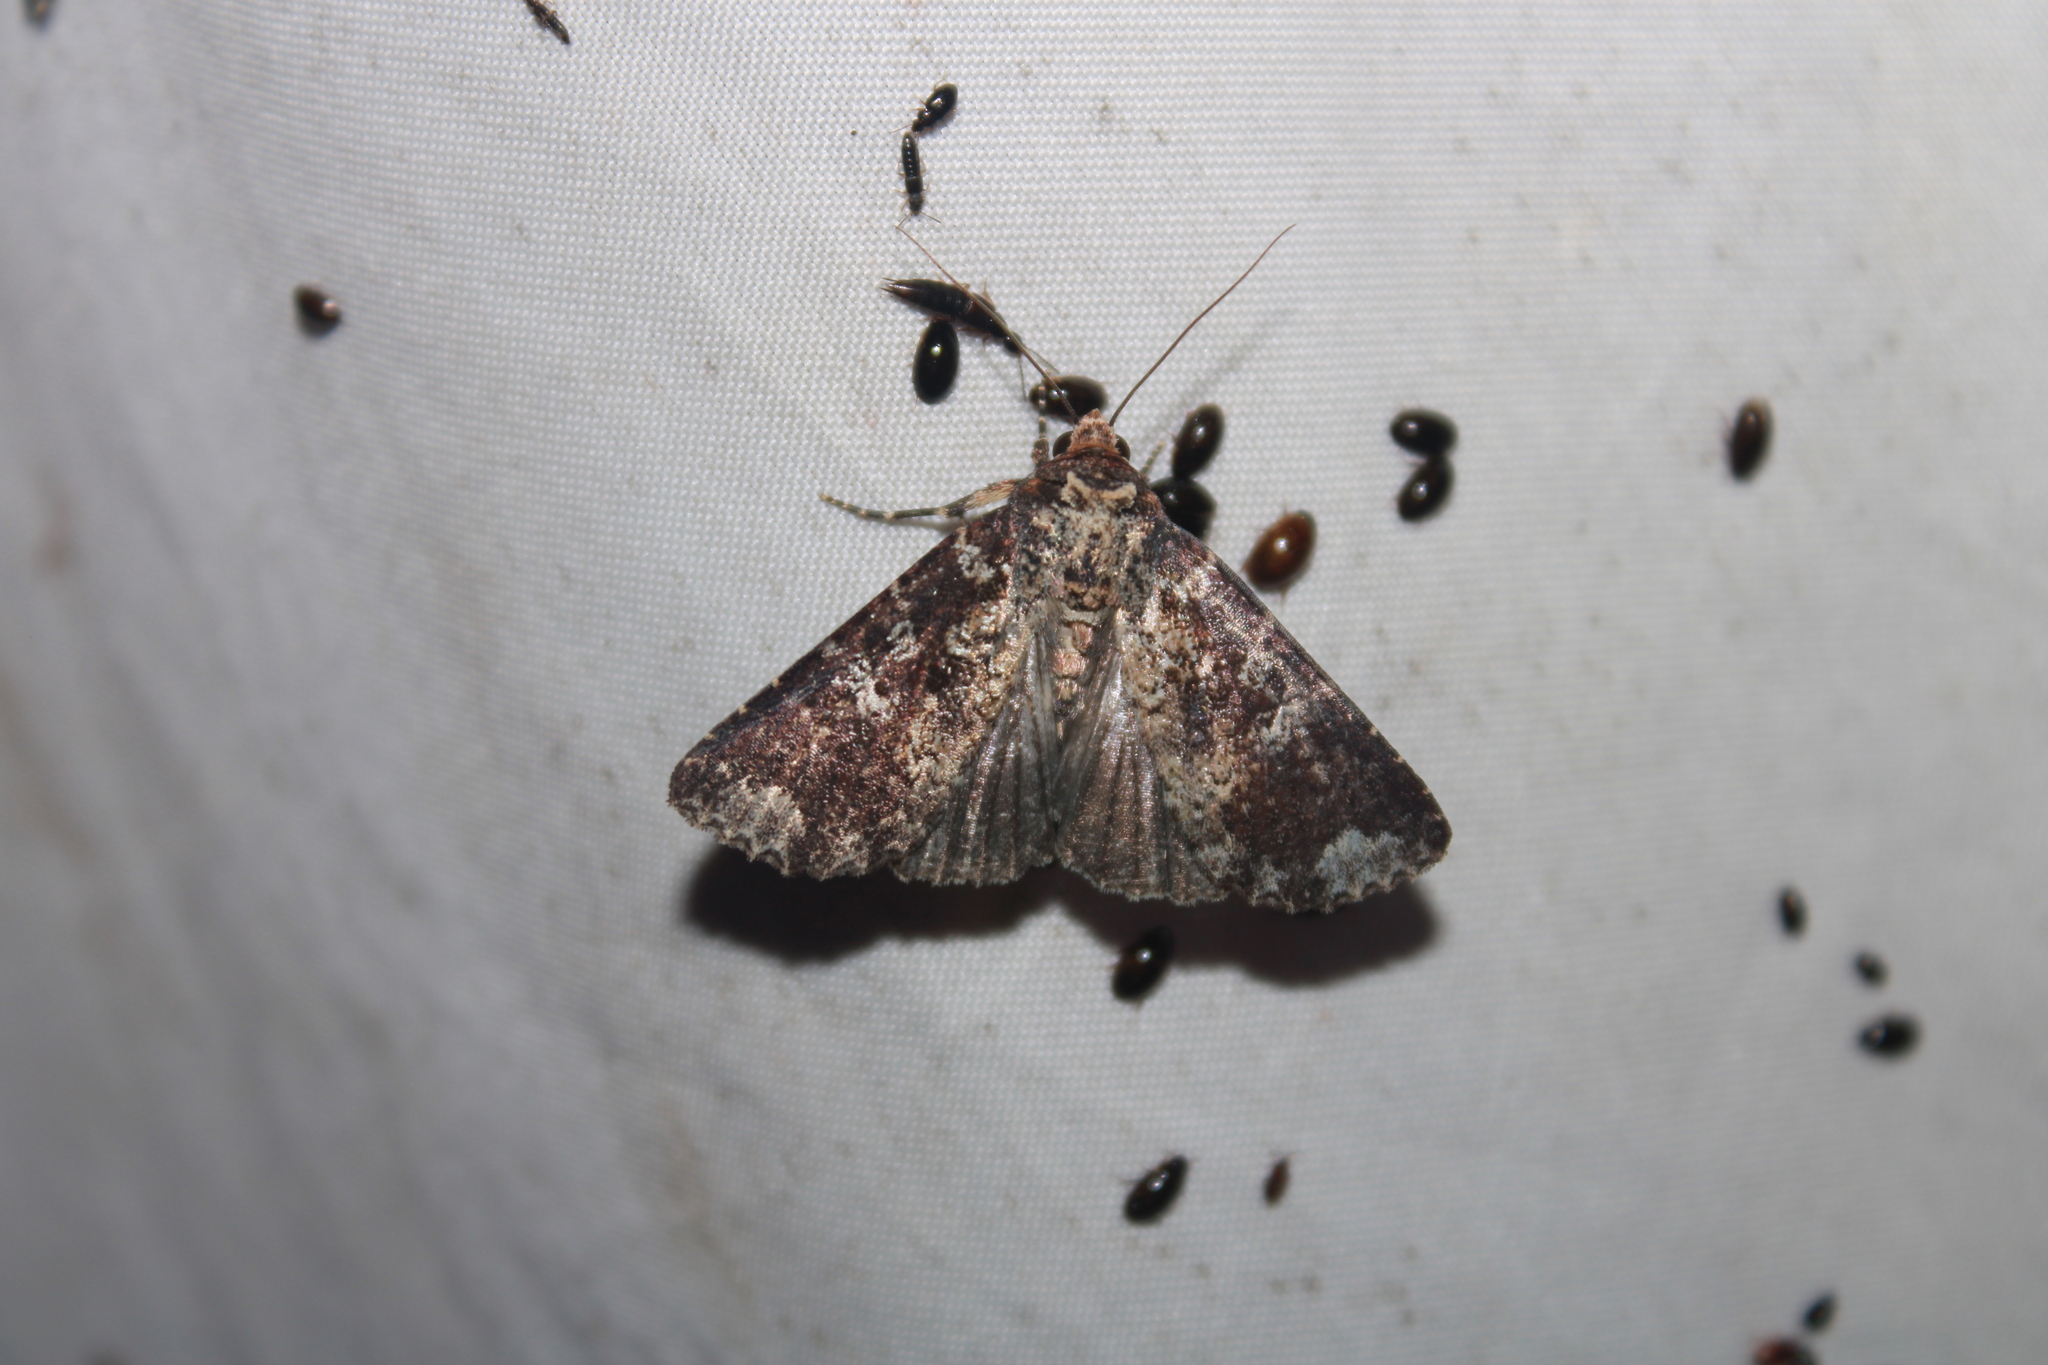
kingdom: Animalia
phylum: Arthropoda
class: Insecta
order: Lepidoptera
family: Noctuidae
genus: Condica
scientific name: Condica confederata
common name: The confederate
